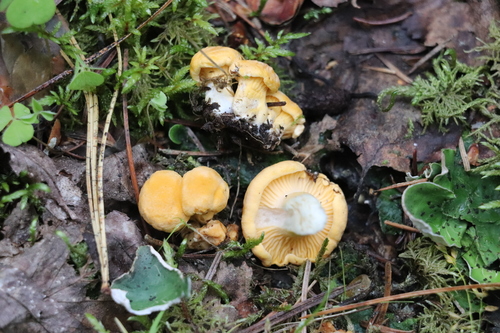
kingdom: Fungi
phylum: Basidiomycota
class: Agaricomycetes
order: Cantharellales
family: Hydnaceae
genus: Cantharellus
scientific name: Cantharellus cibarius
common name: Chanterelle
